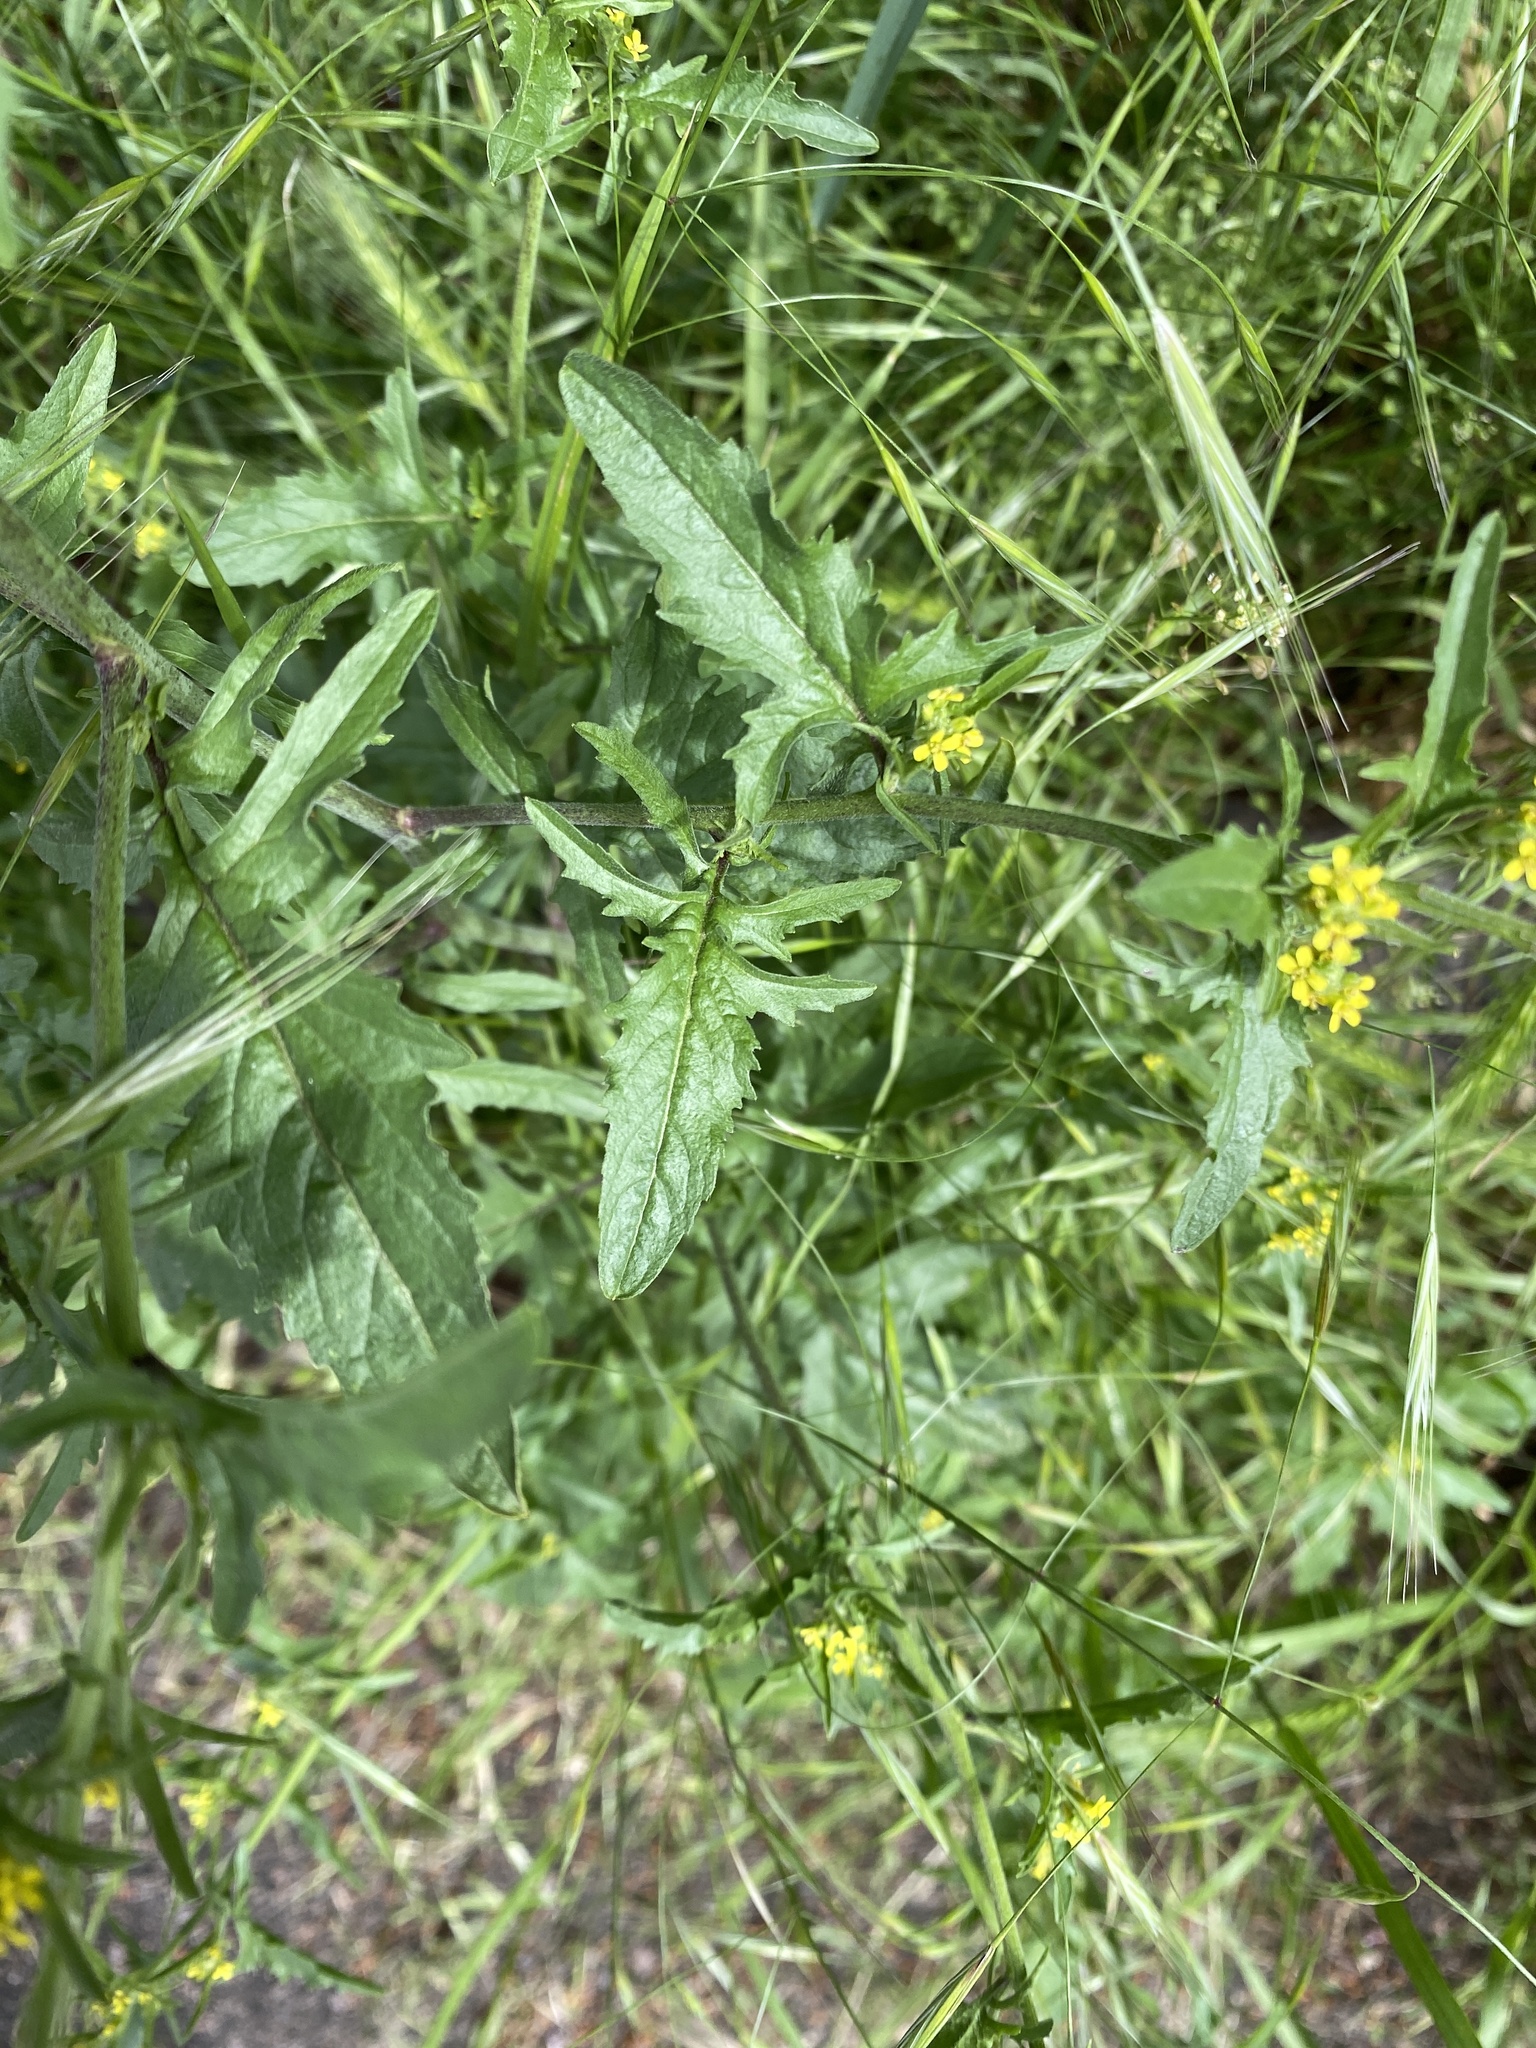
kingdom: Plantae
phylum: Tracheophyta
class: Magnoliopsida
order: Brassicales
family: Brassicaceae
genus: Sisymbrium
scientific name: Sisymbrium officinale
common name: Hedge mustard
